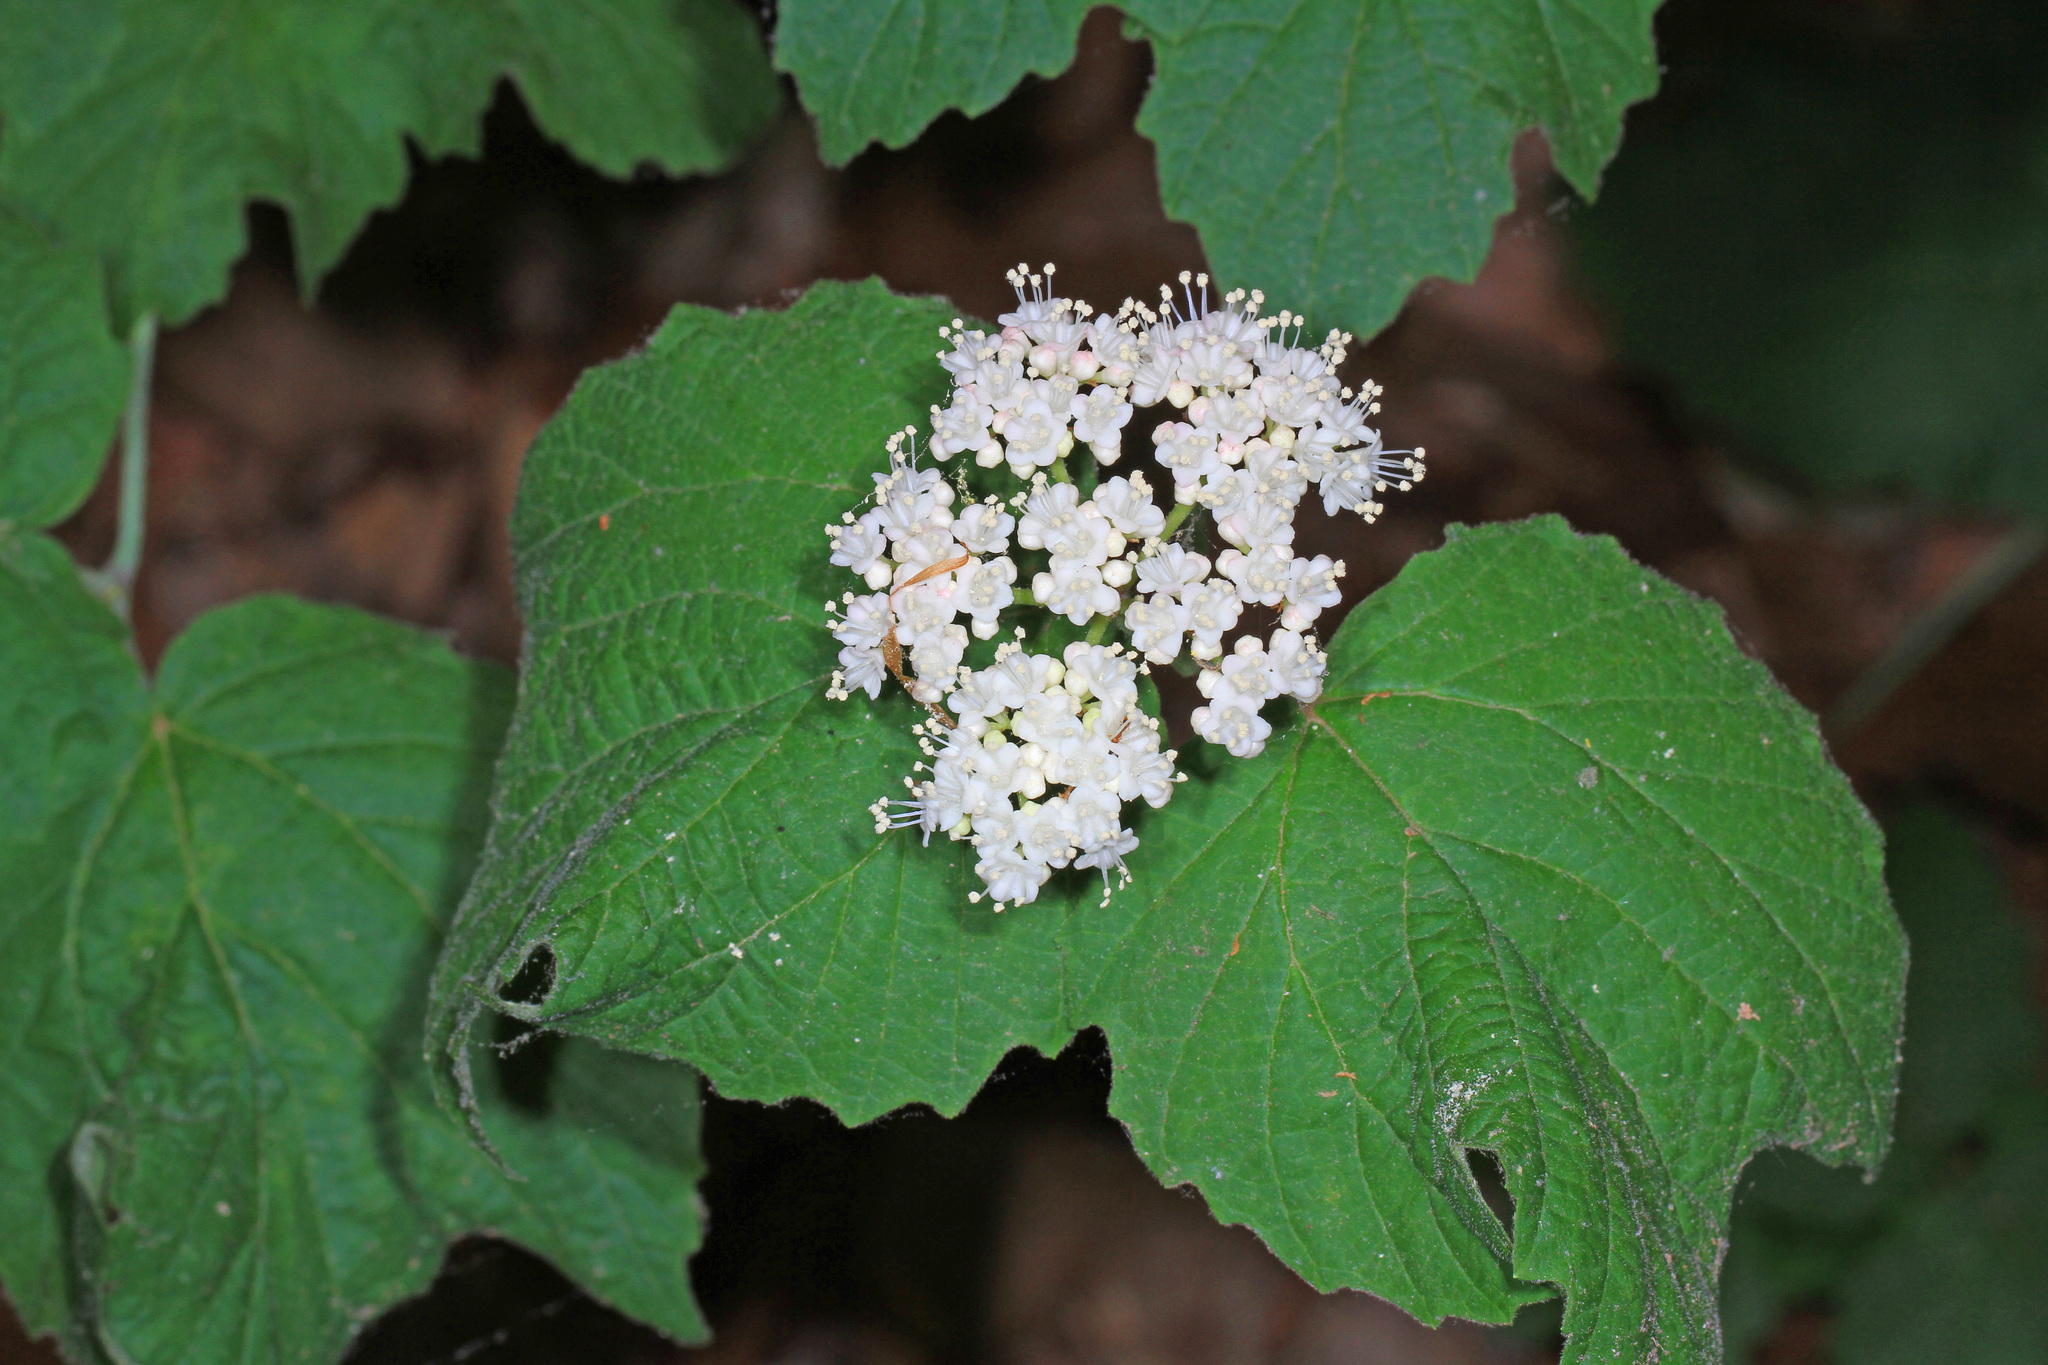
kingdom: Plantae
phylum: Tracheophyta
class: Magnoliopsida
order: Dipsacales
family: Viburnaceae
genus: Viburnum
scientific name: Viburnum acerifolium
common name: Dockmackie
